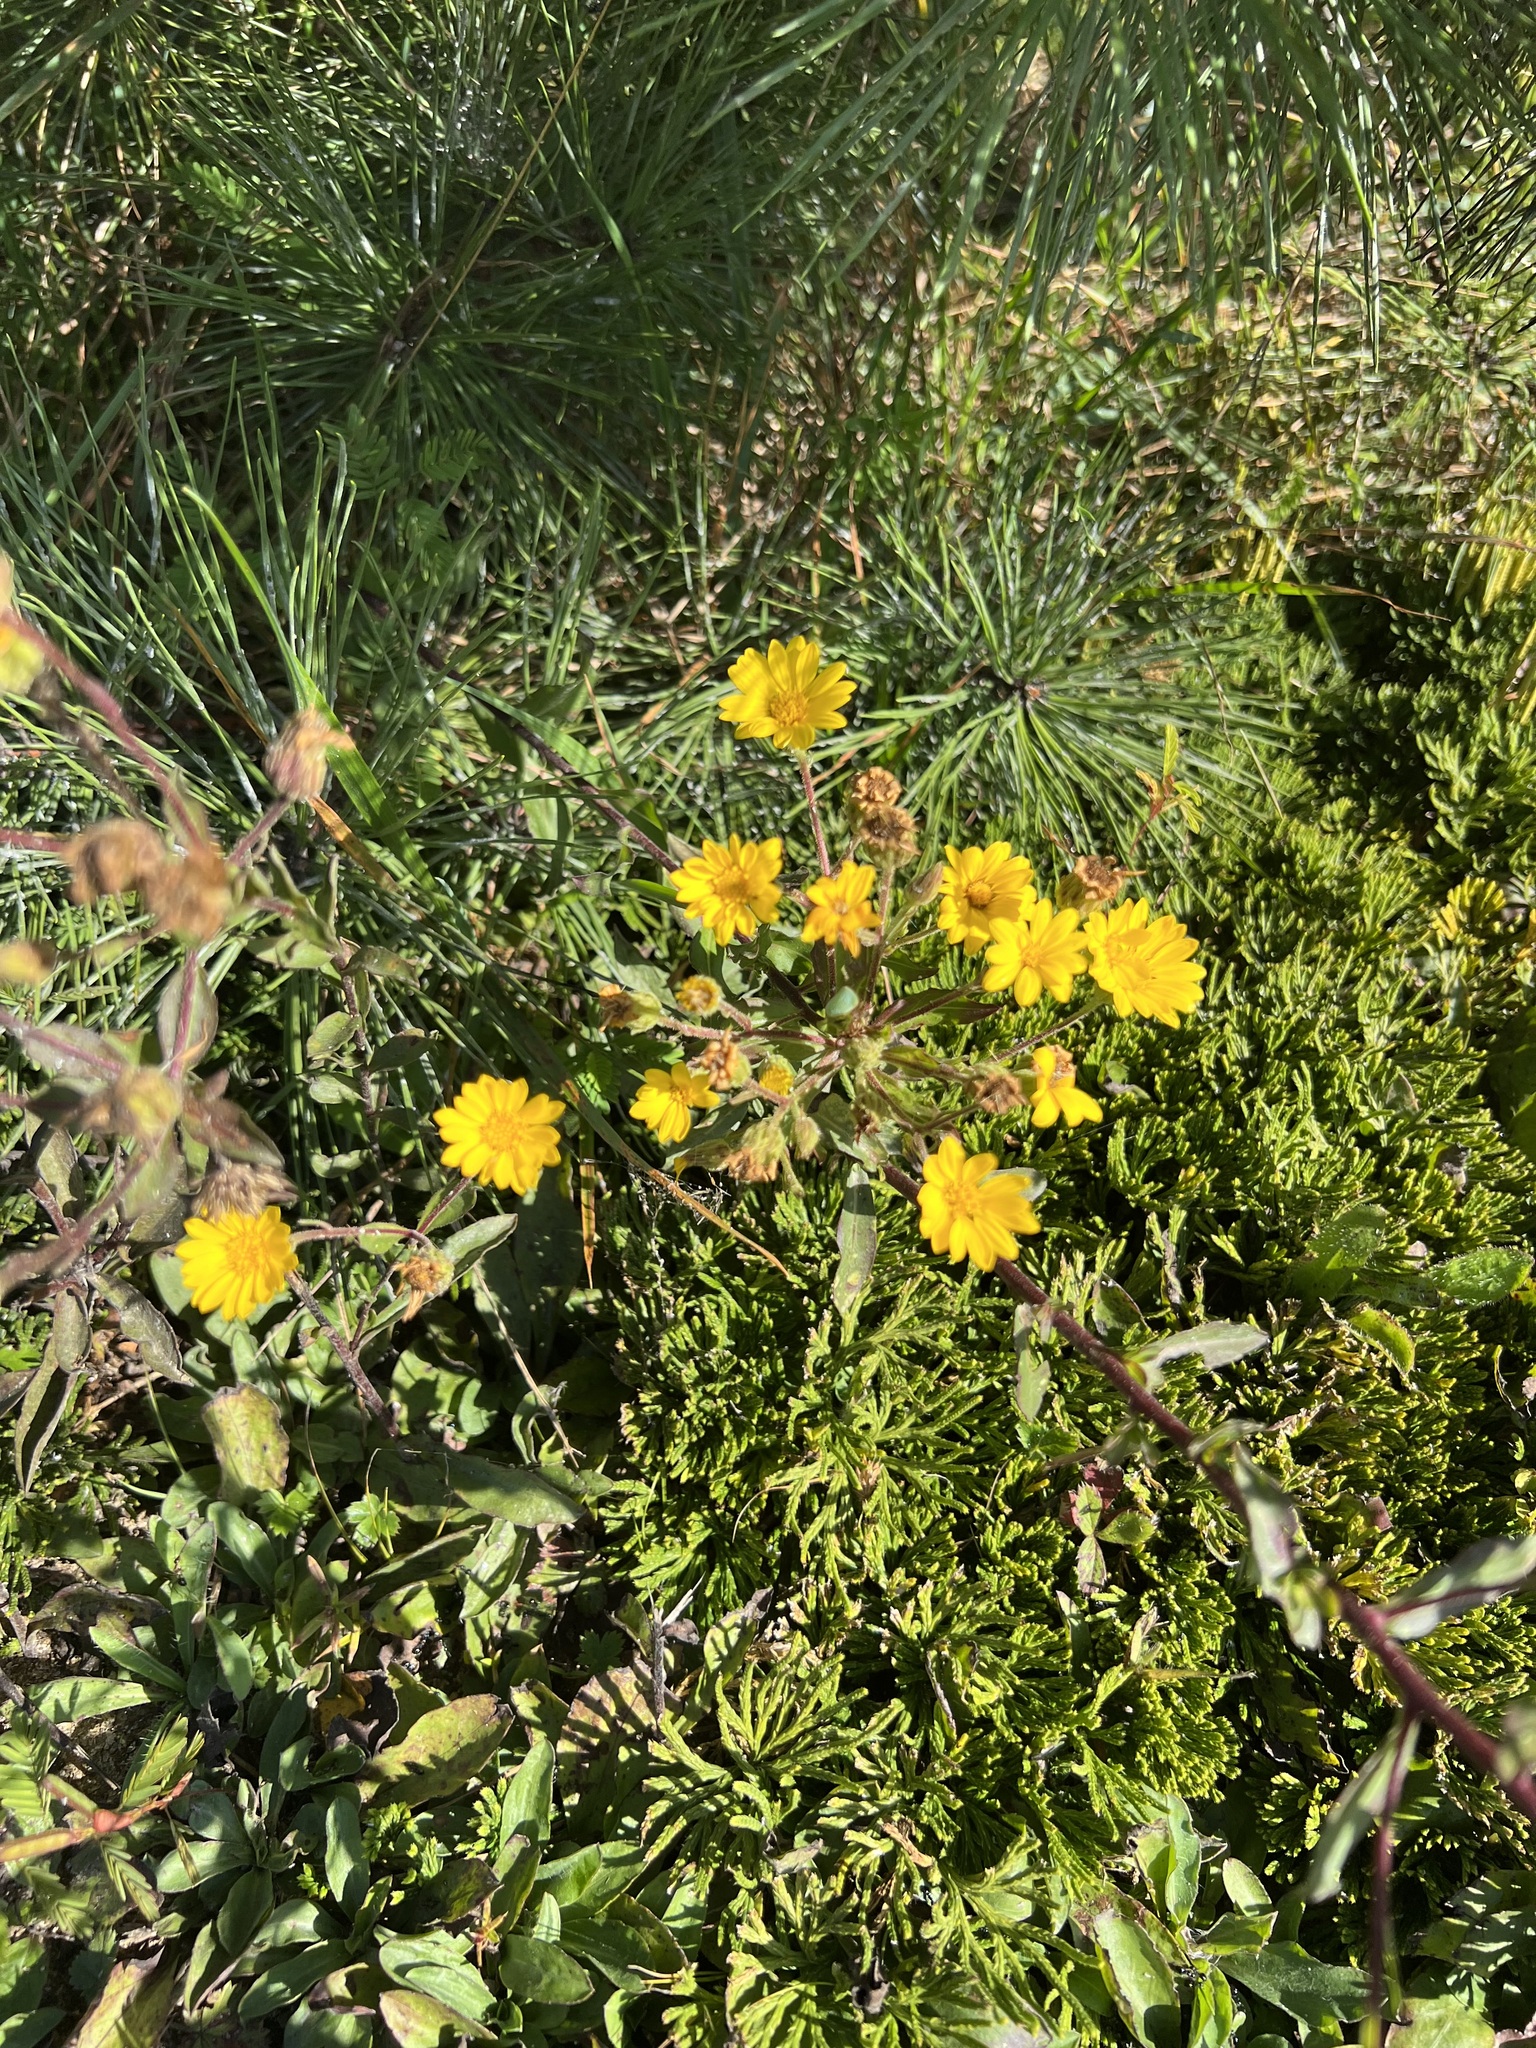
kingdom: Plantae
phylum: Tracheophyta
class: Magnoliopsida
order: Asterales
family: Asteraceae
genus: Chrysopsis
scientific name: Chrysopsis mariana
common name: Maryland golden-aster
